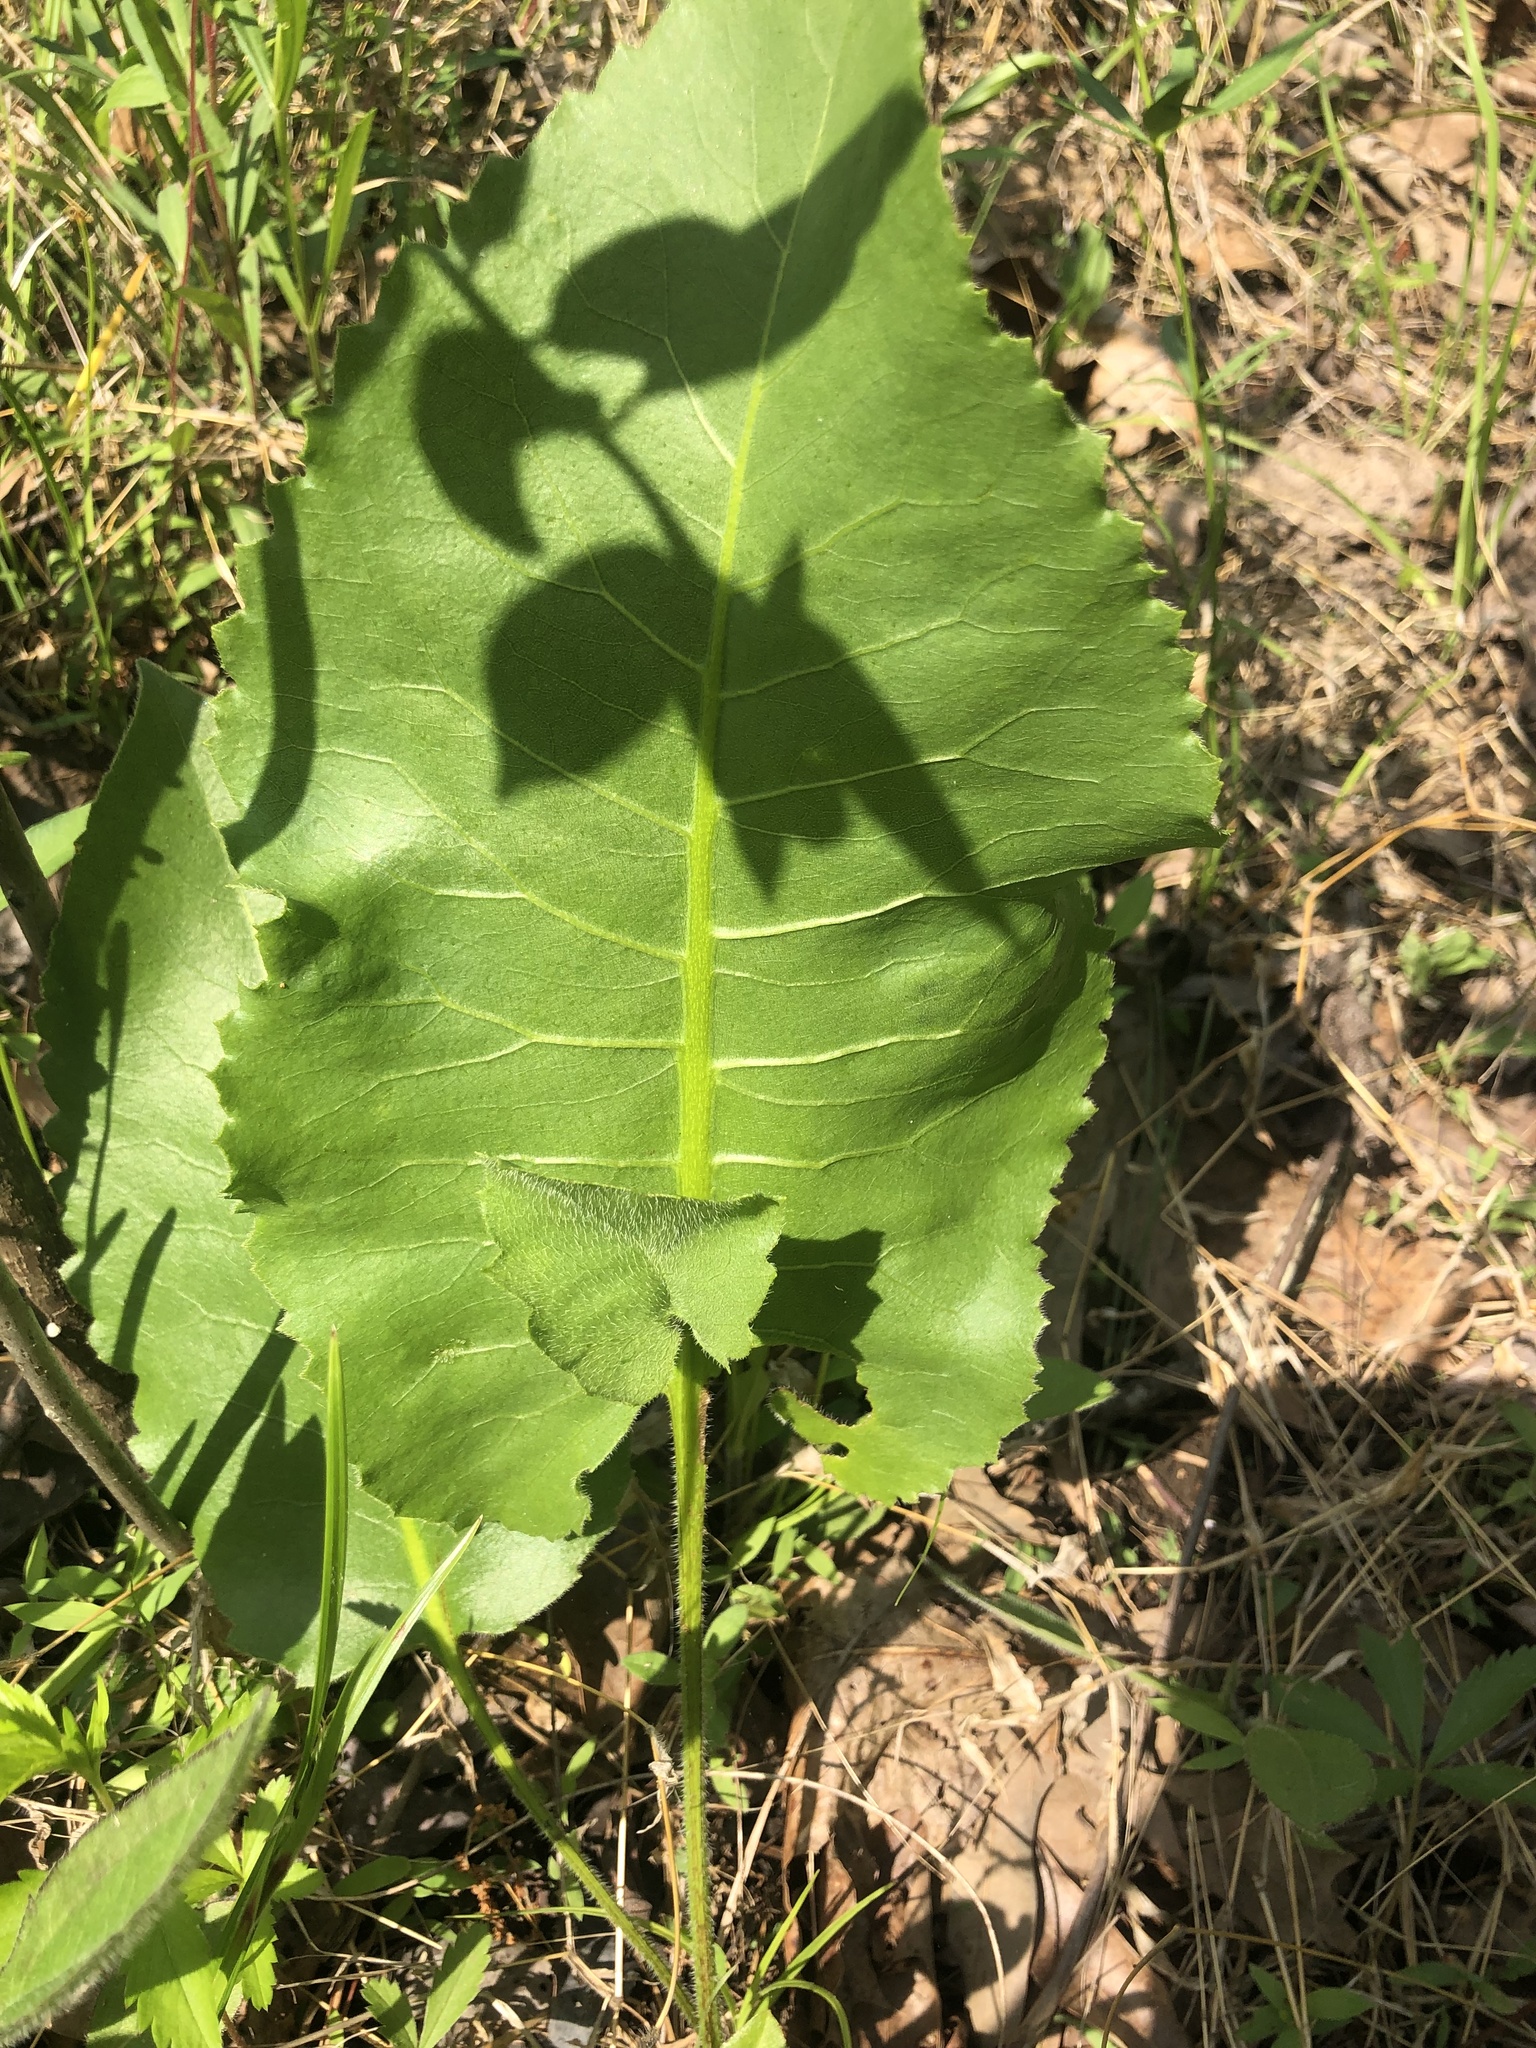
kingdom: Plantae
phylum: Tracheophyta
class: Magnoliopsida
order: Asterales
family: Asteraceae
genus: Silphium
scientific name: Silphium terebinthinaceum
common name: Basal-leaf rosinweed
